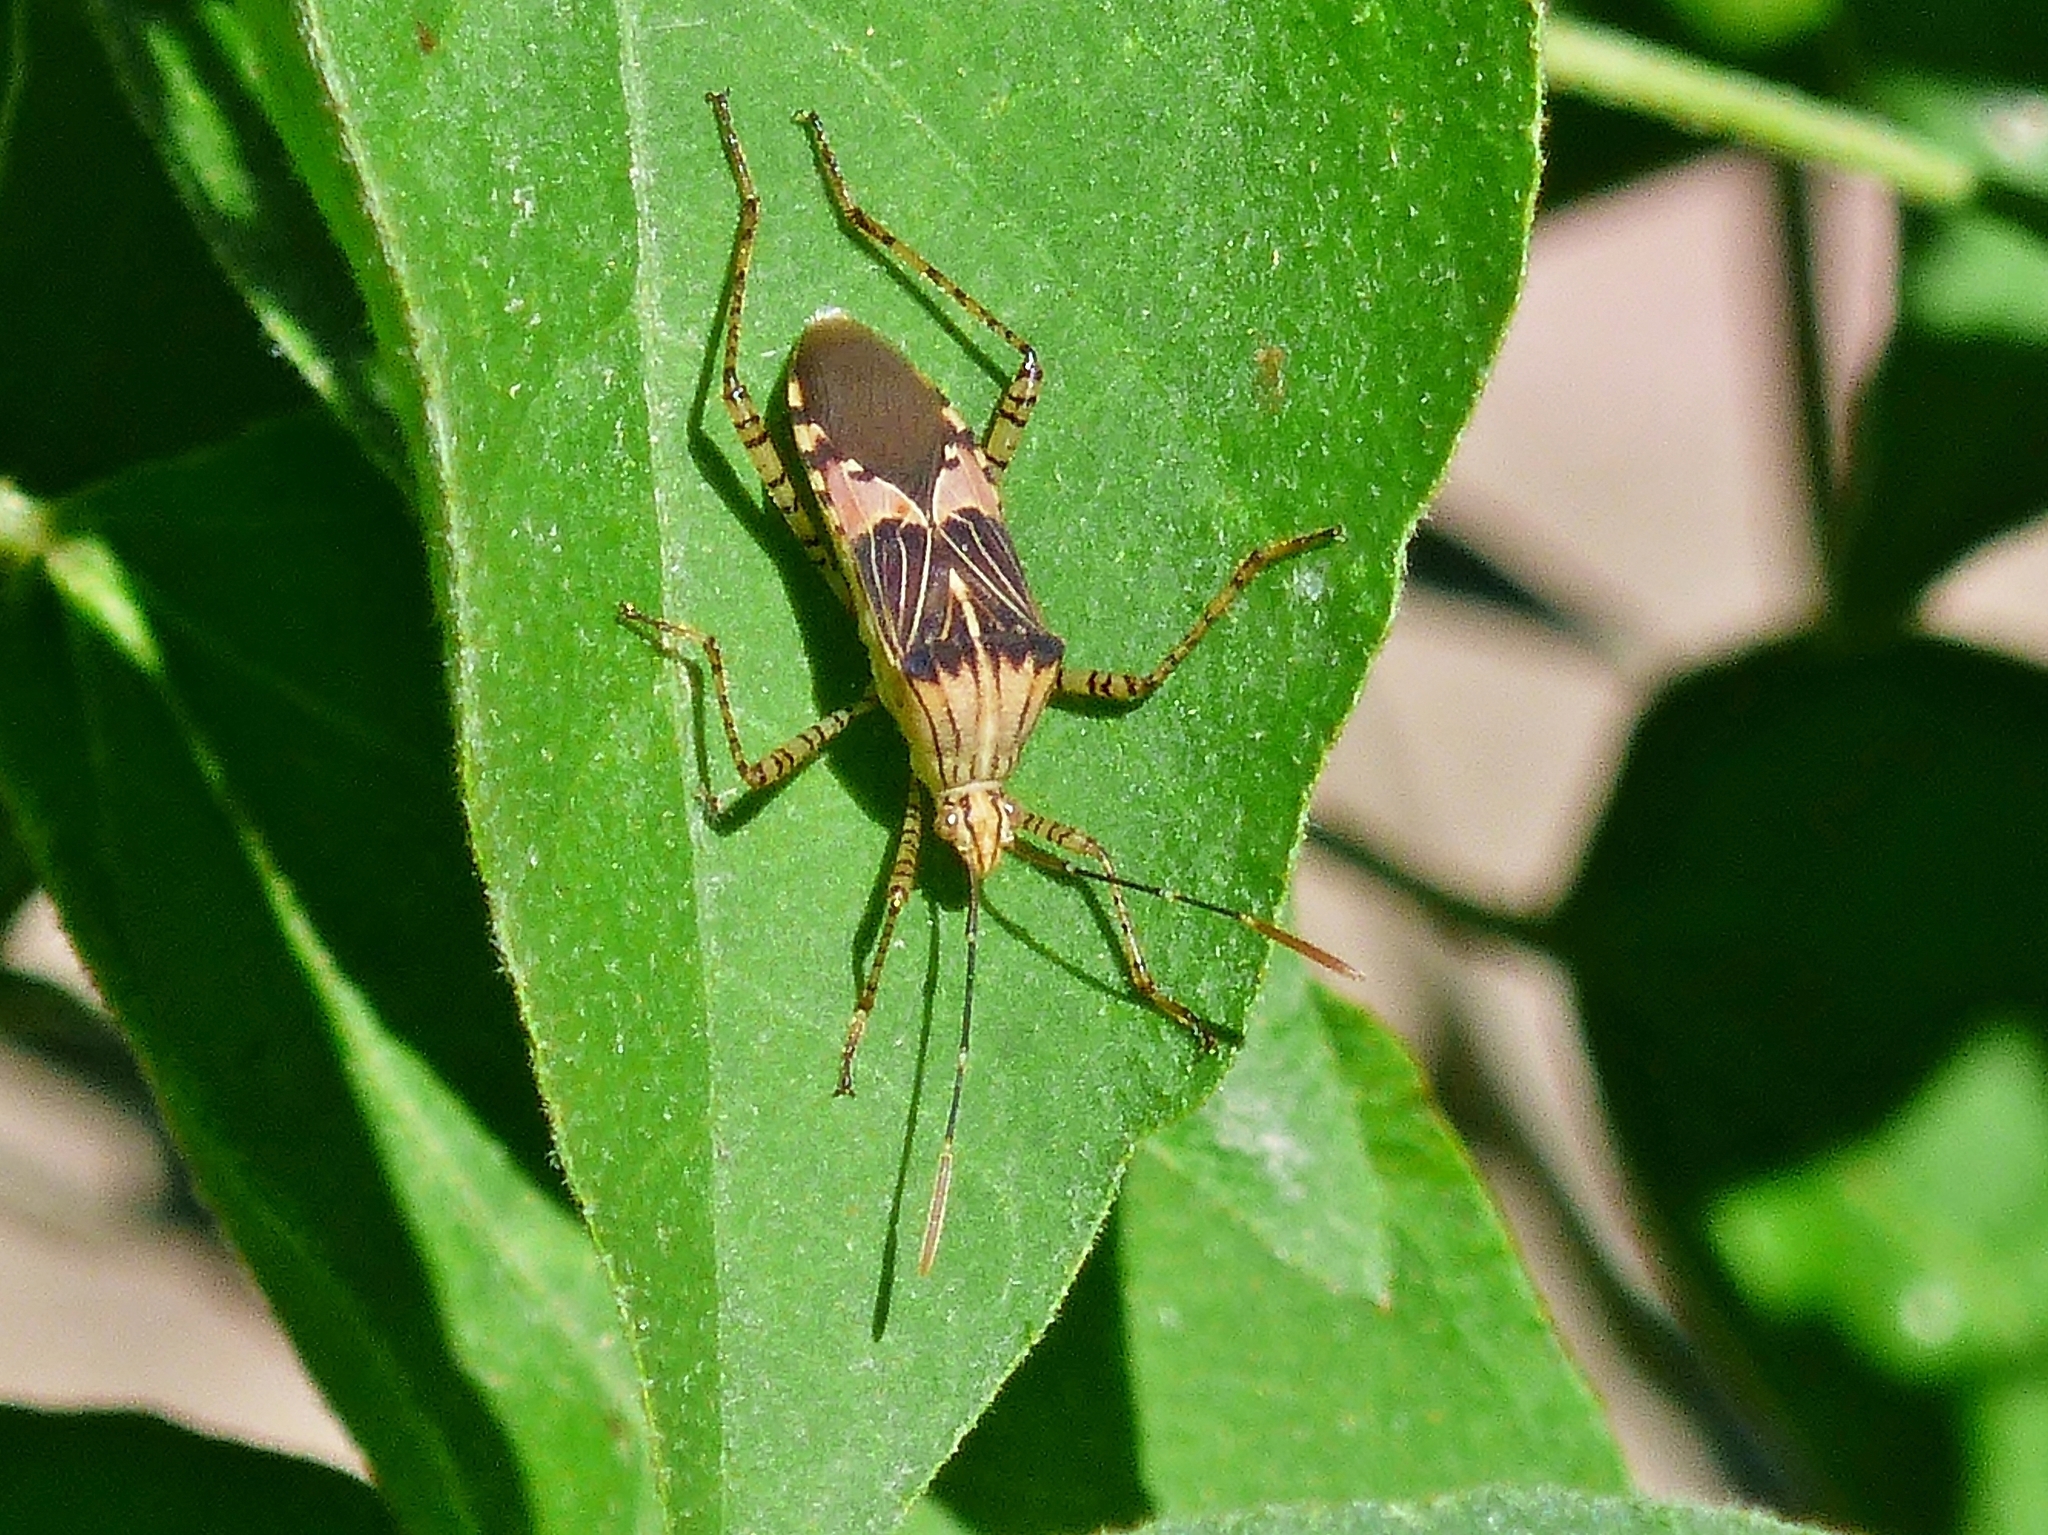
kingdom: Animalia
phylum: Arthropoda
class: Insecta
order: Hemiptera
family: Coreidae
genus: Hypselonotus
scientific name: Hypselonotus punctiventris
